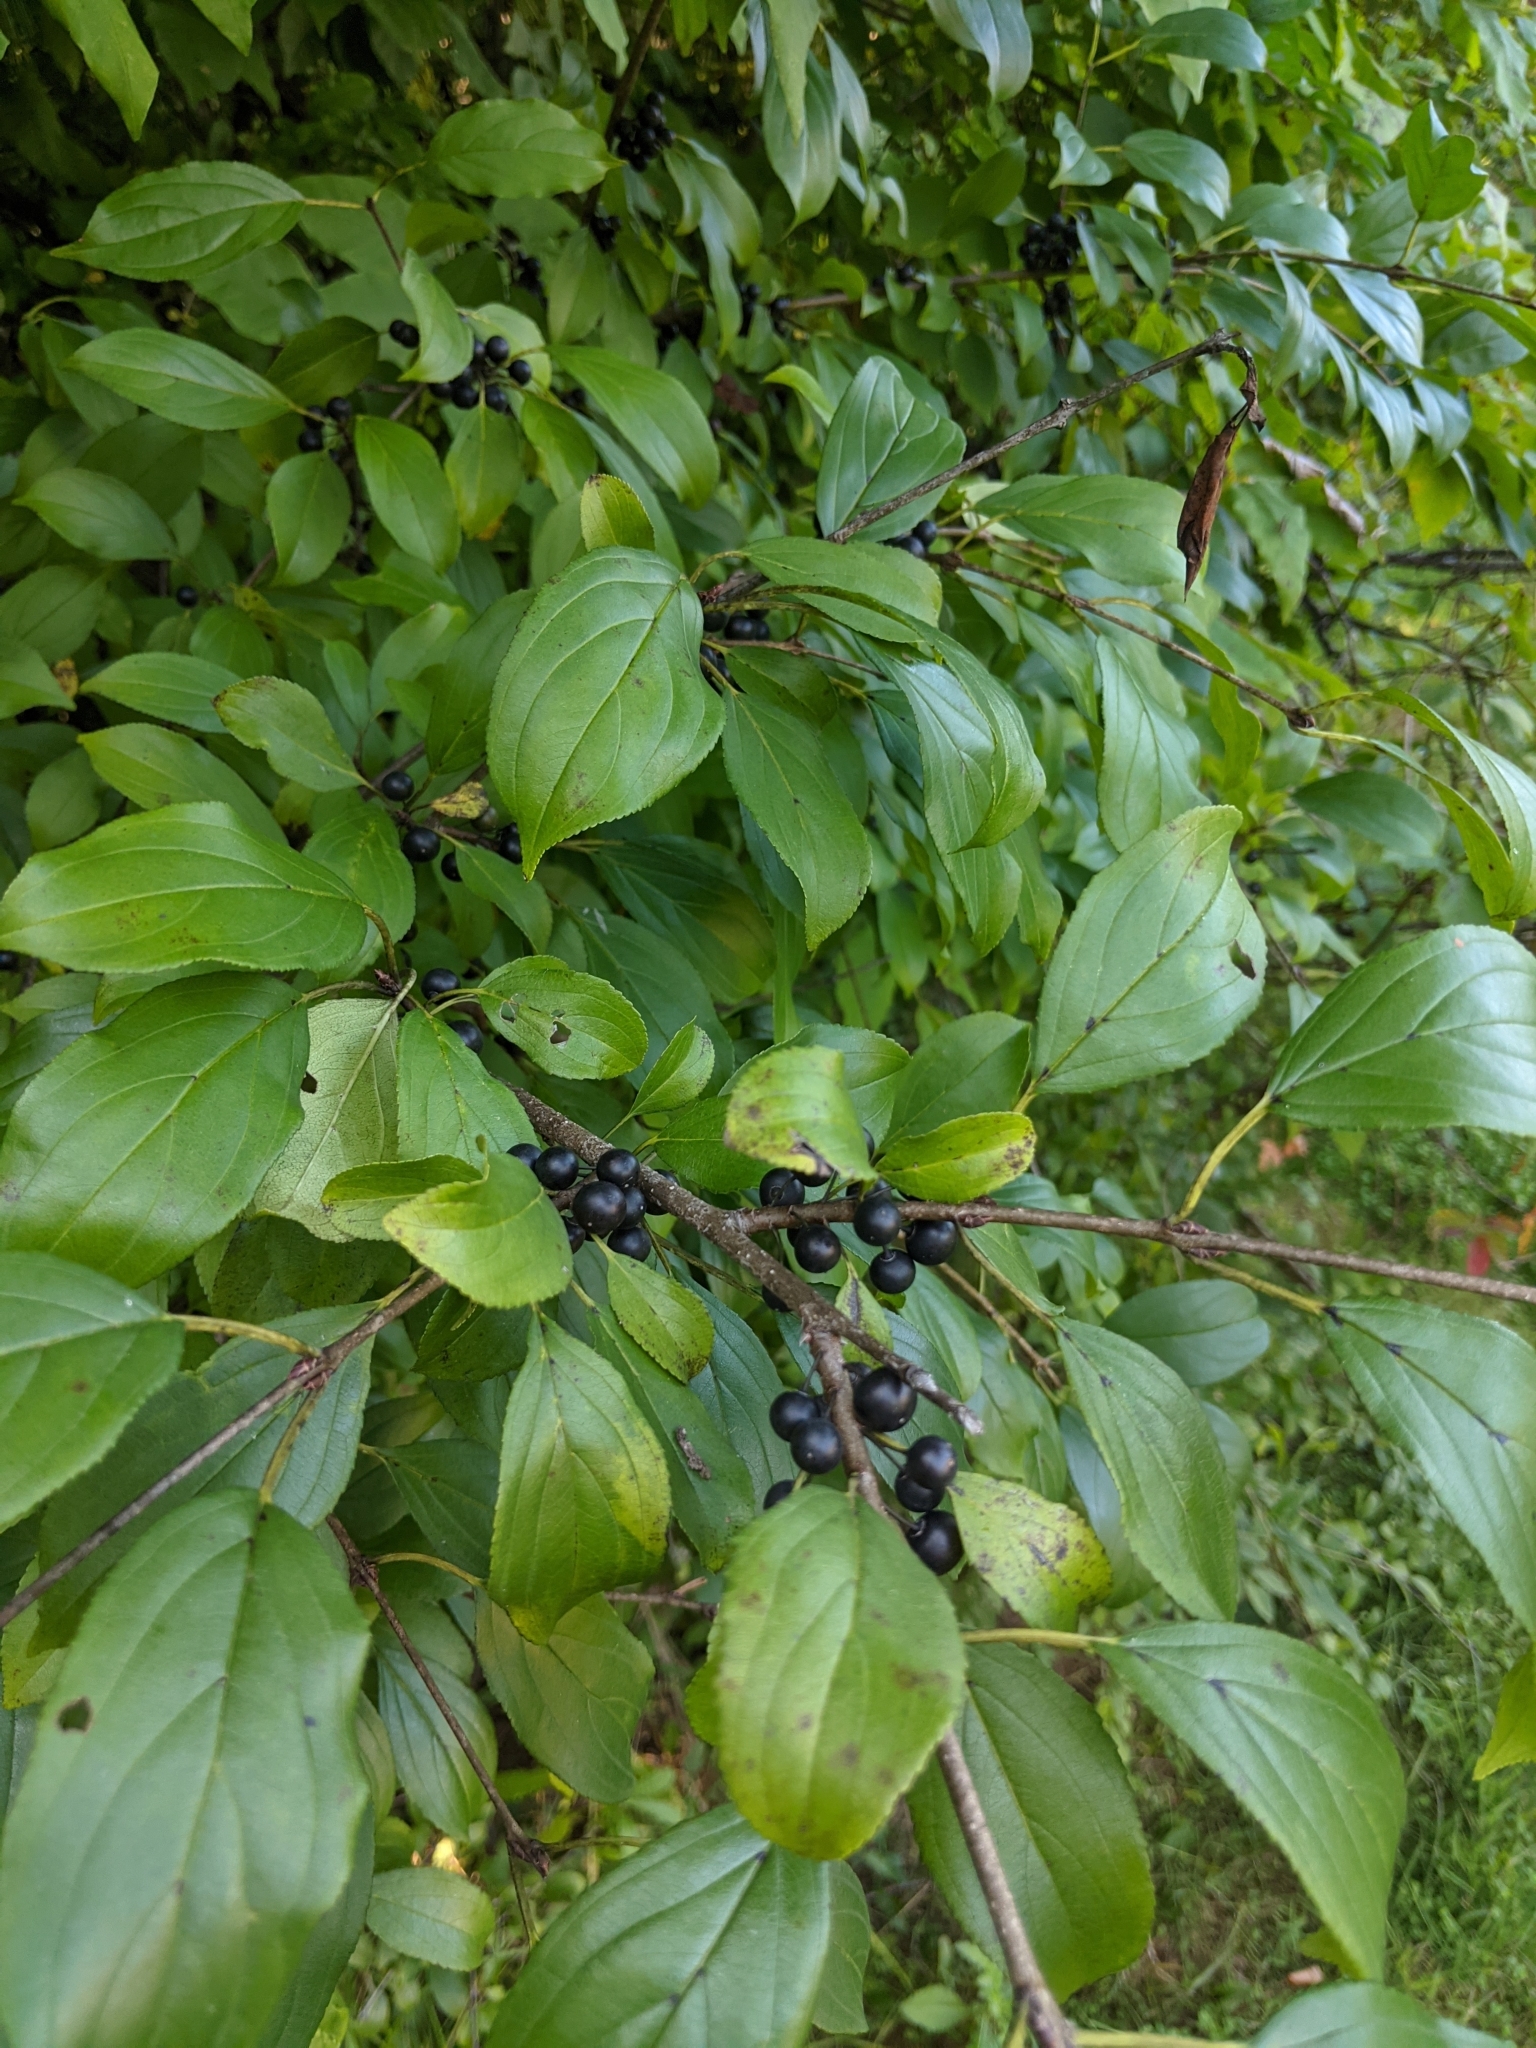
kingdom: Plantae
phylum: Tracheophyta
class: Magnoliopsida
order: Rosales
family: Rhamnaceae
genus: Rhamnus
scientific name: Rhamnus cathartica
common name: Common buckthorn
